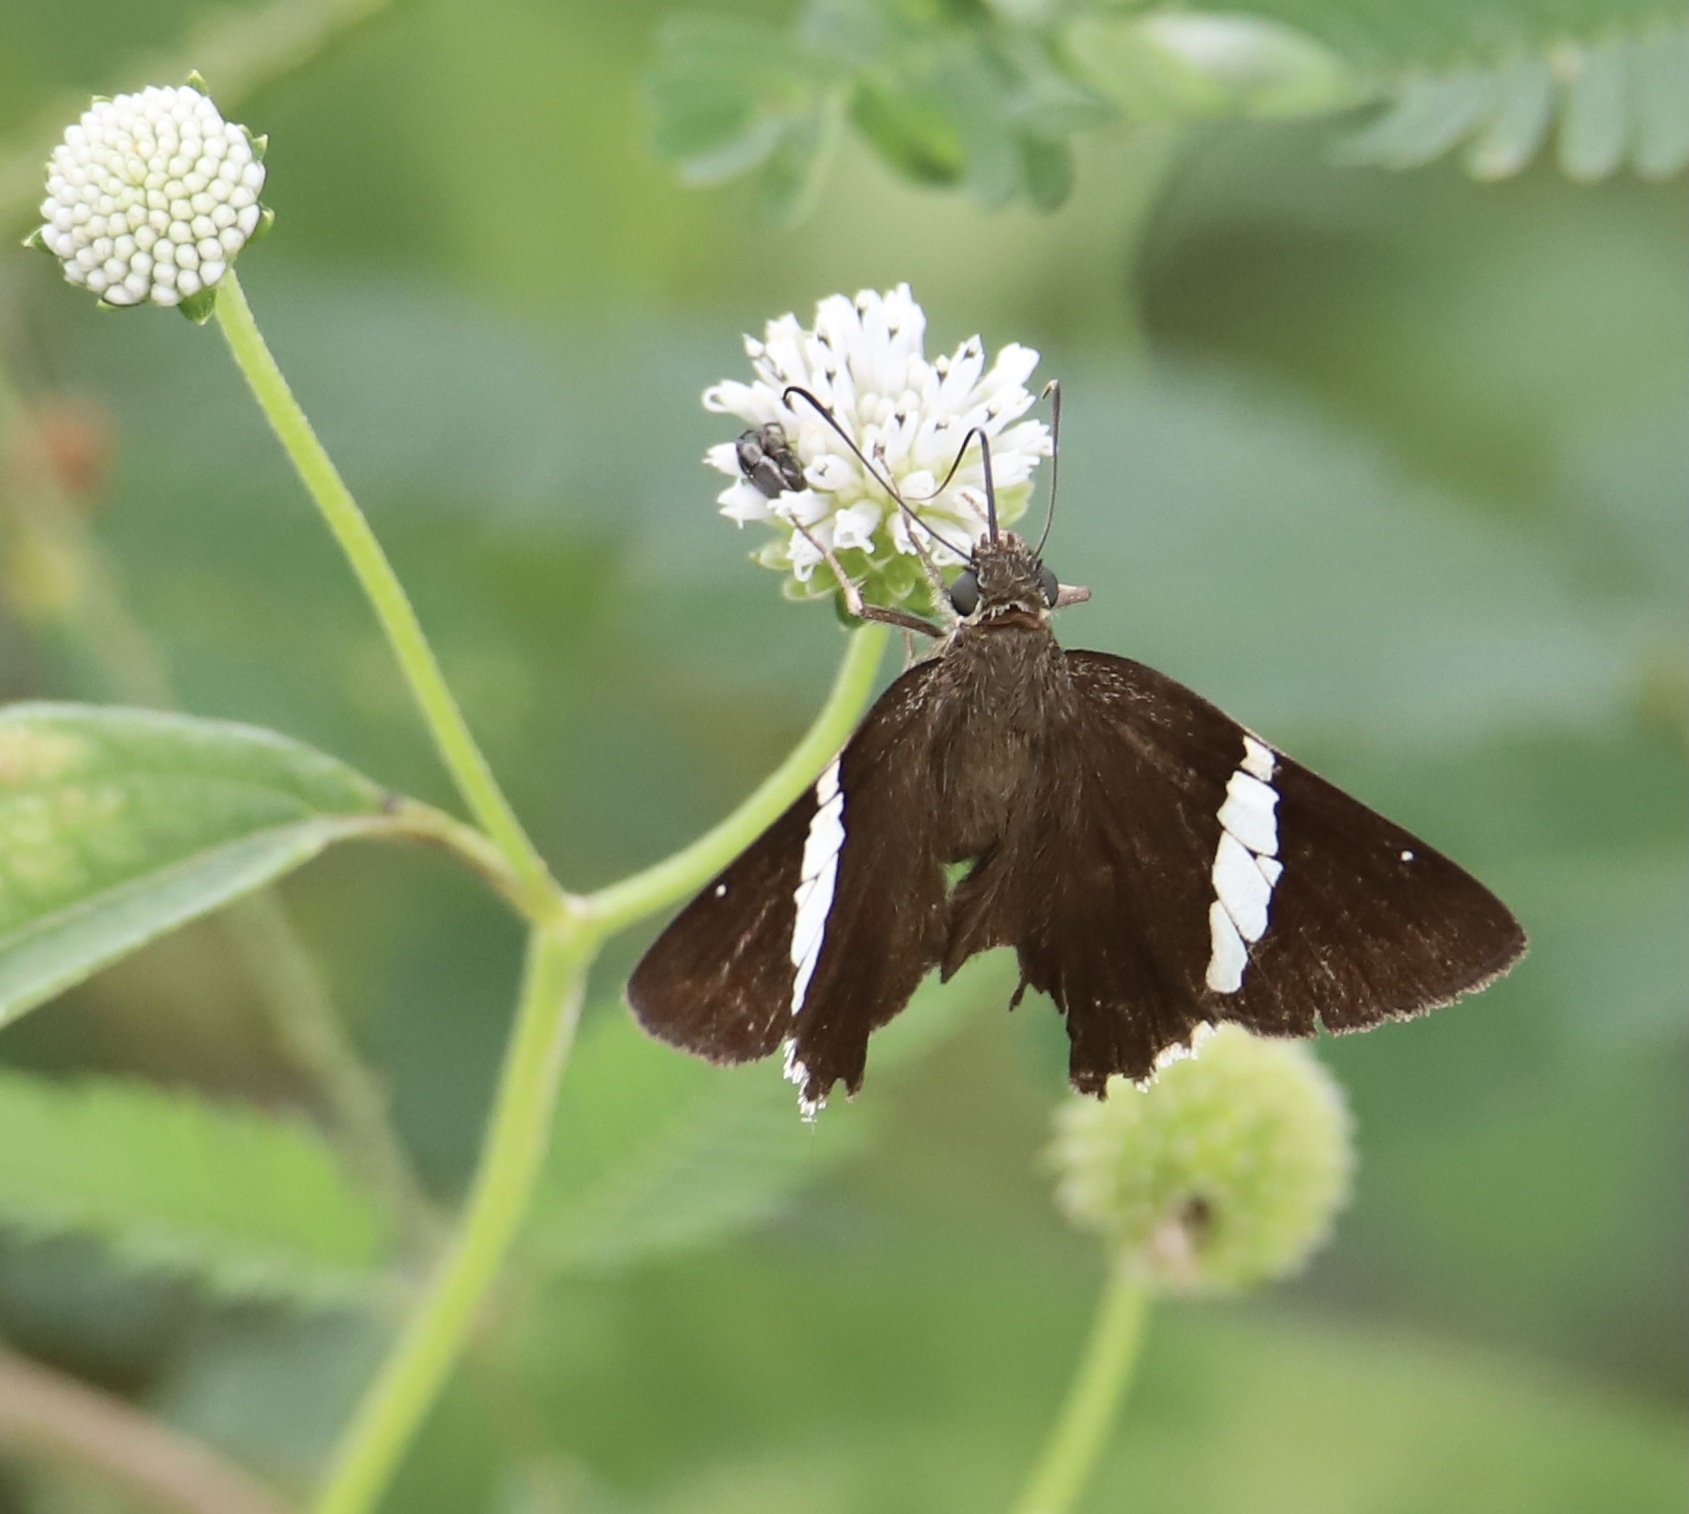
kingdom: Animalia
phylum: Arthropoda
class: Insecta
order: Lepidoptera
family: Hesperiidae
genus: Autochton
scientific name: Autochton neis
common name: Broad-banded skipper
